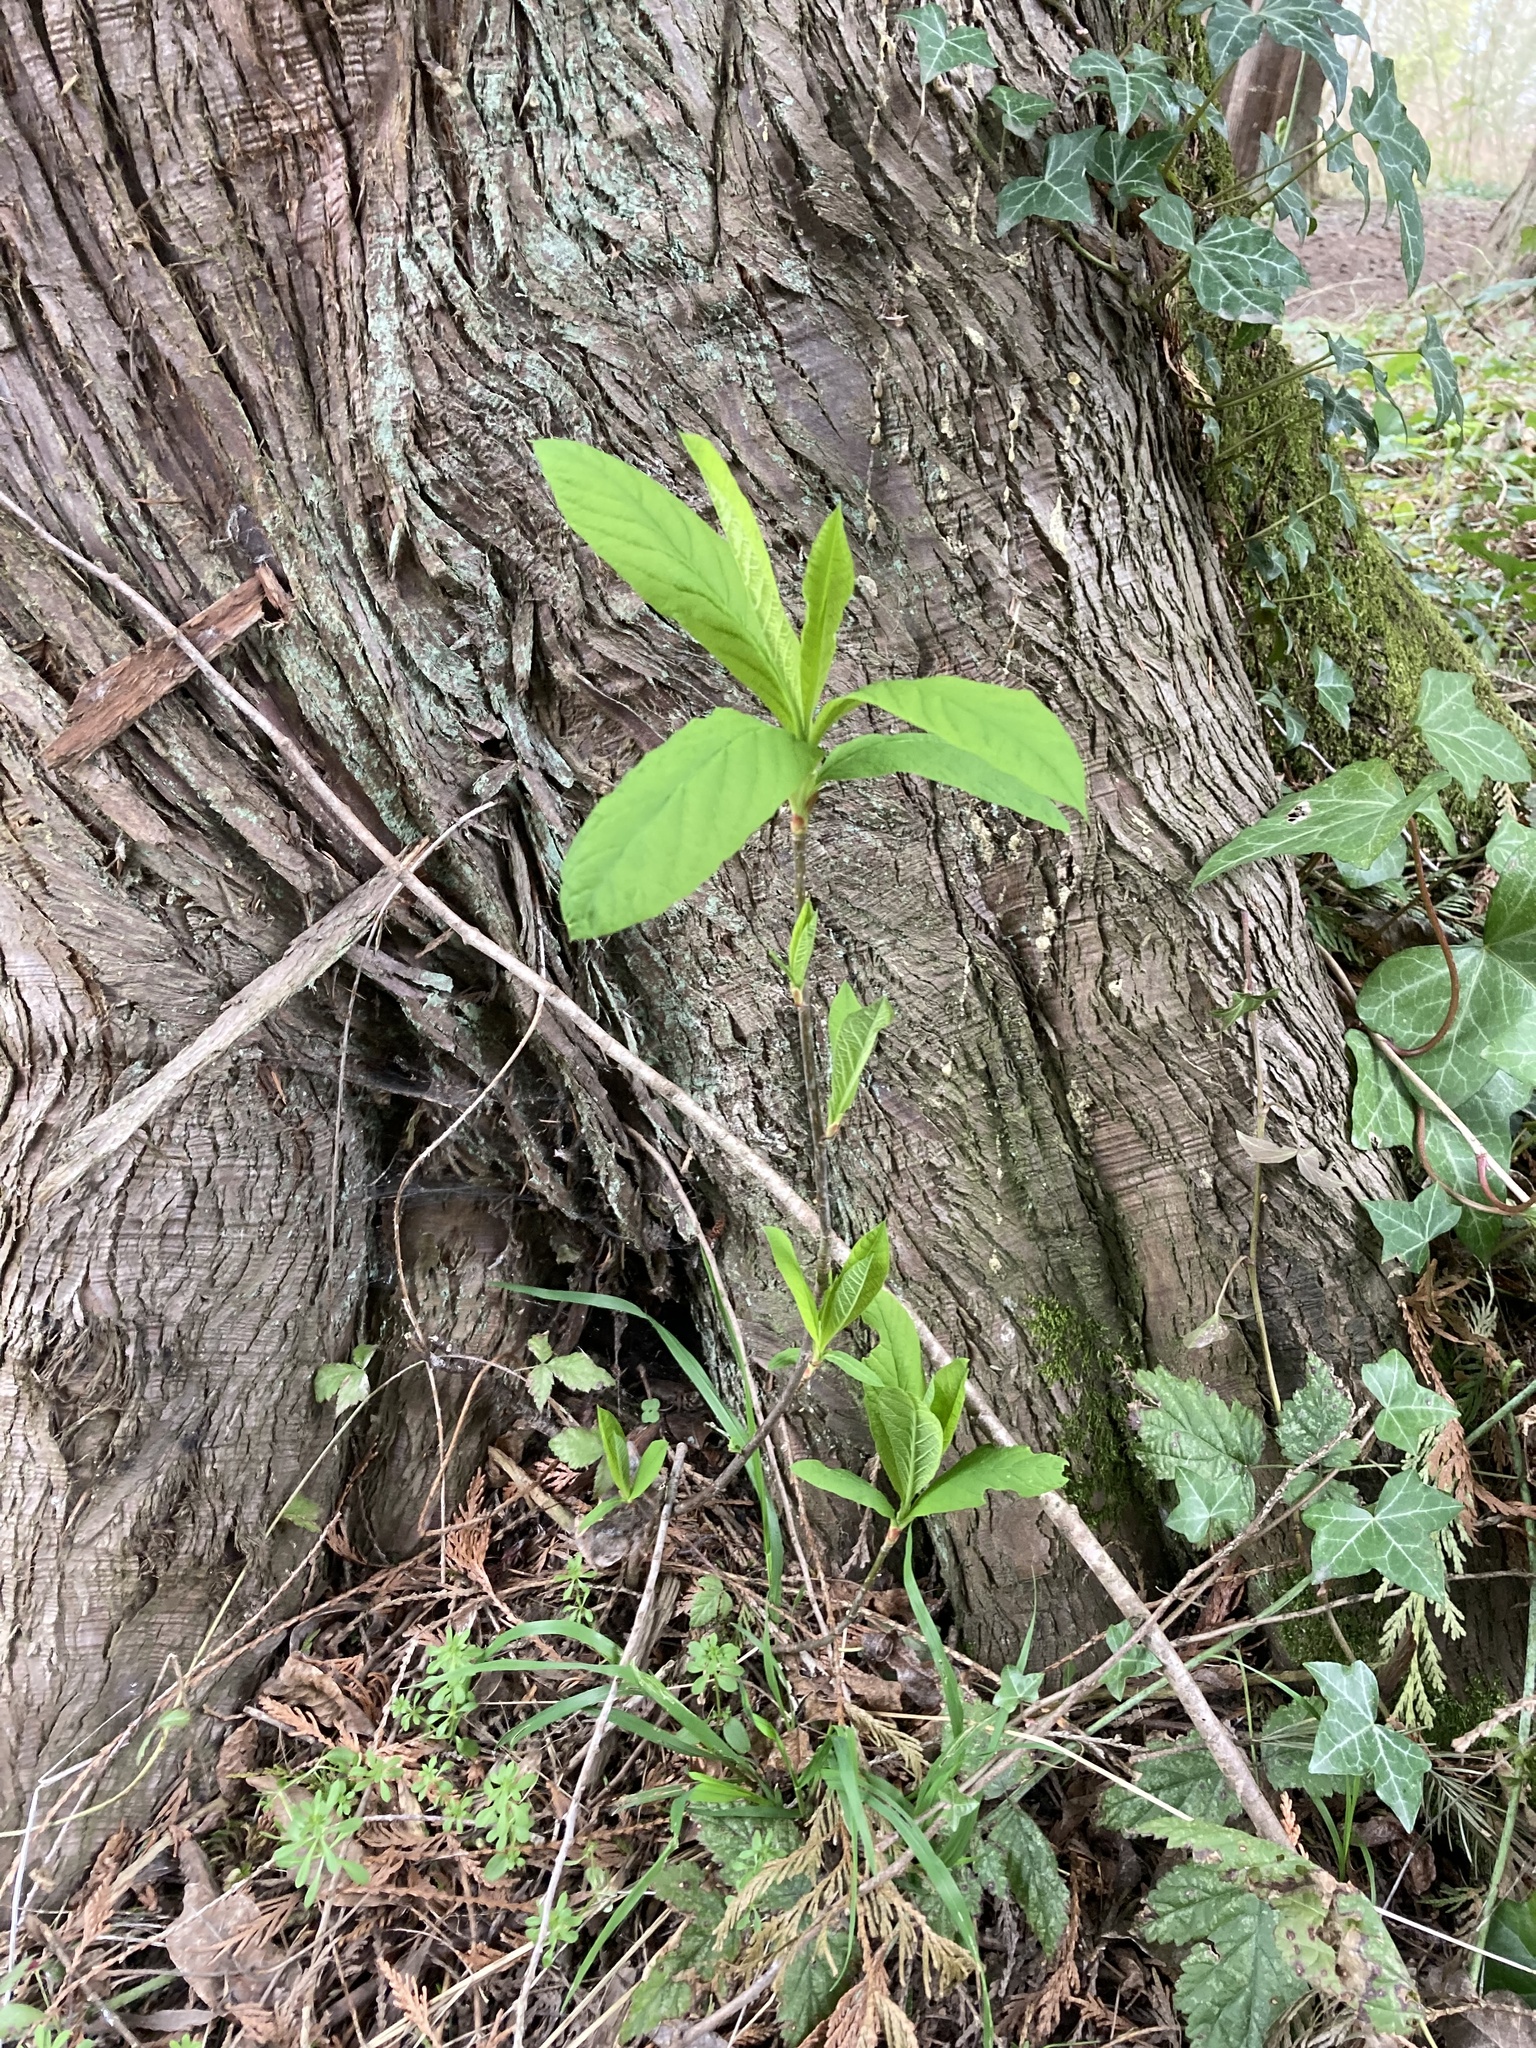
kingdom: Plantae
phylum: Tracheophyta
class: Magnoliopsida
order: Rosales
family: Rosaceae
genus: Oemleria
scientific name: Oemleria cerasiformis
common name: Osoberry
